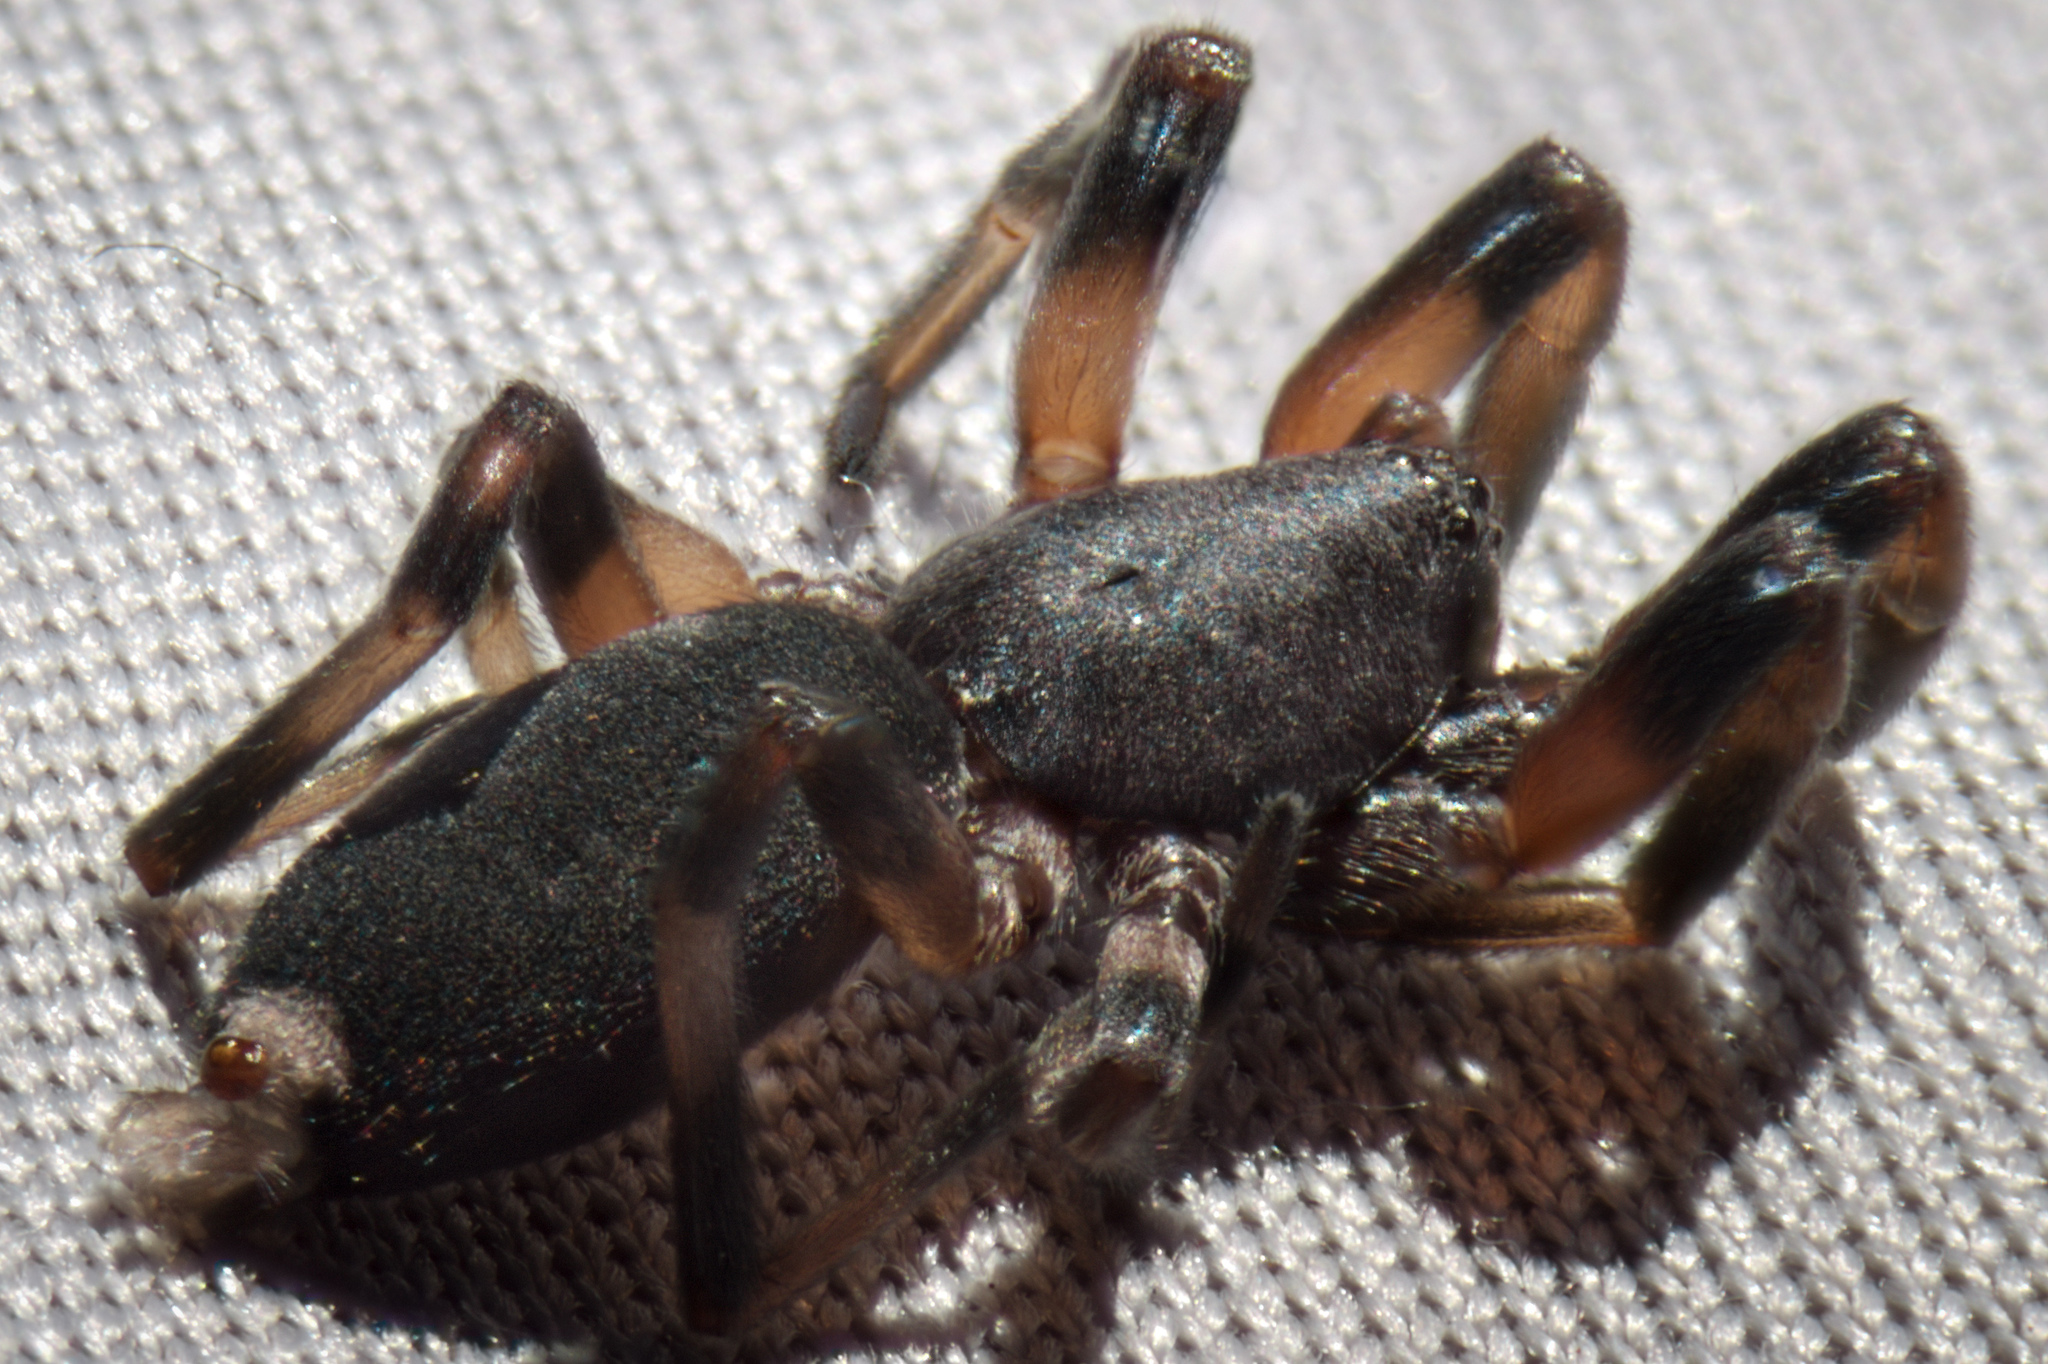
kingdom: Animalia
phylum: Arthropoda
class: Arachnida
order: Araneae
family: Lamponidae
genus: Lampona
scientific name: Lampona murina
